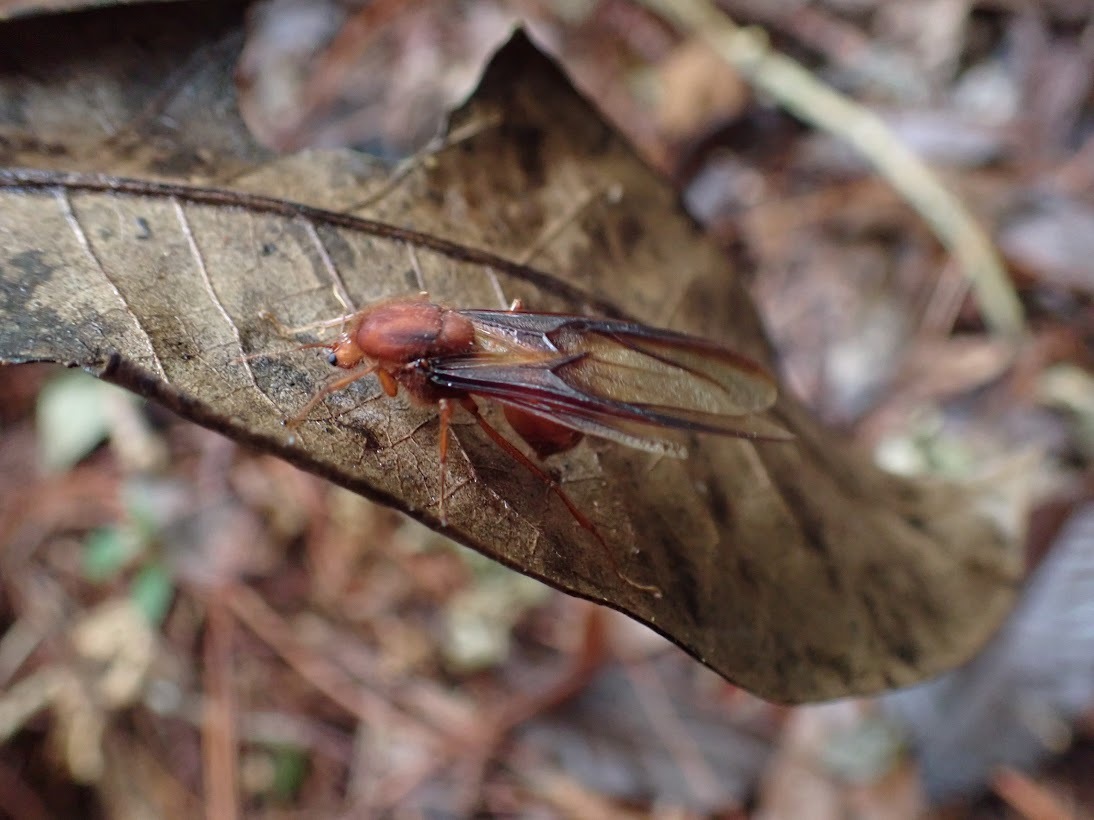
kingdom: Animalia
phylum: Arthropoda
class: Insecta
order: Hymenoptera
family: Formicidae
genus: Atta
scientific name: Atta cephalotes
